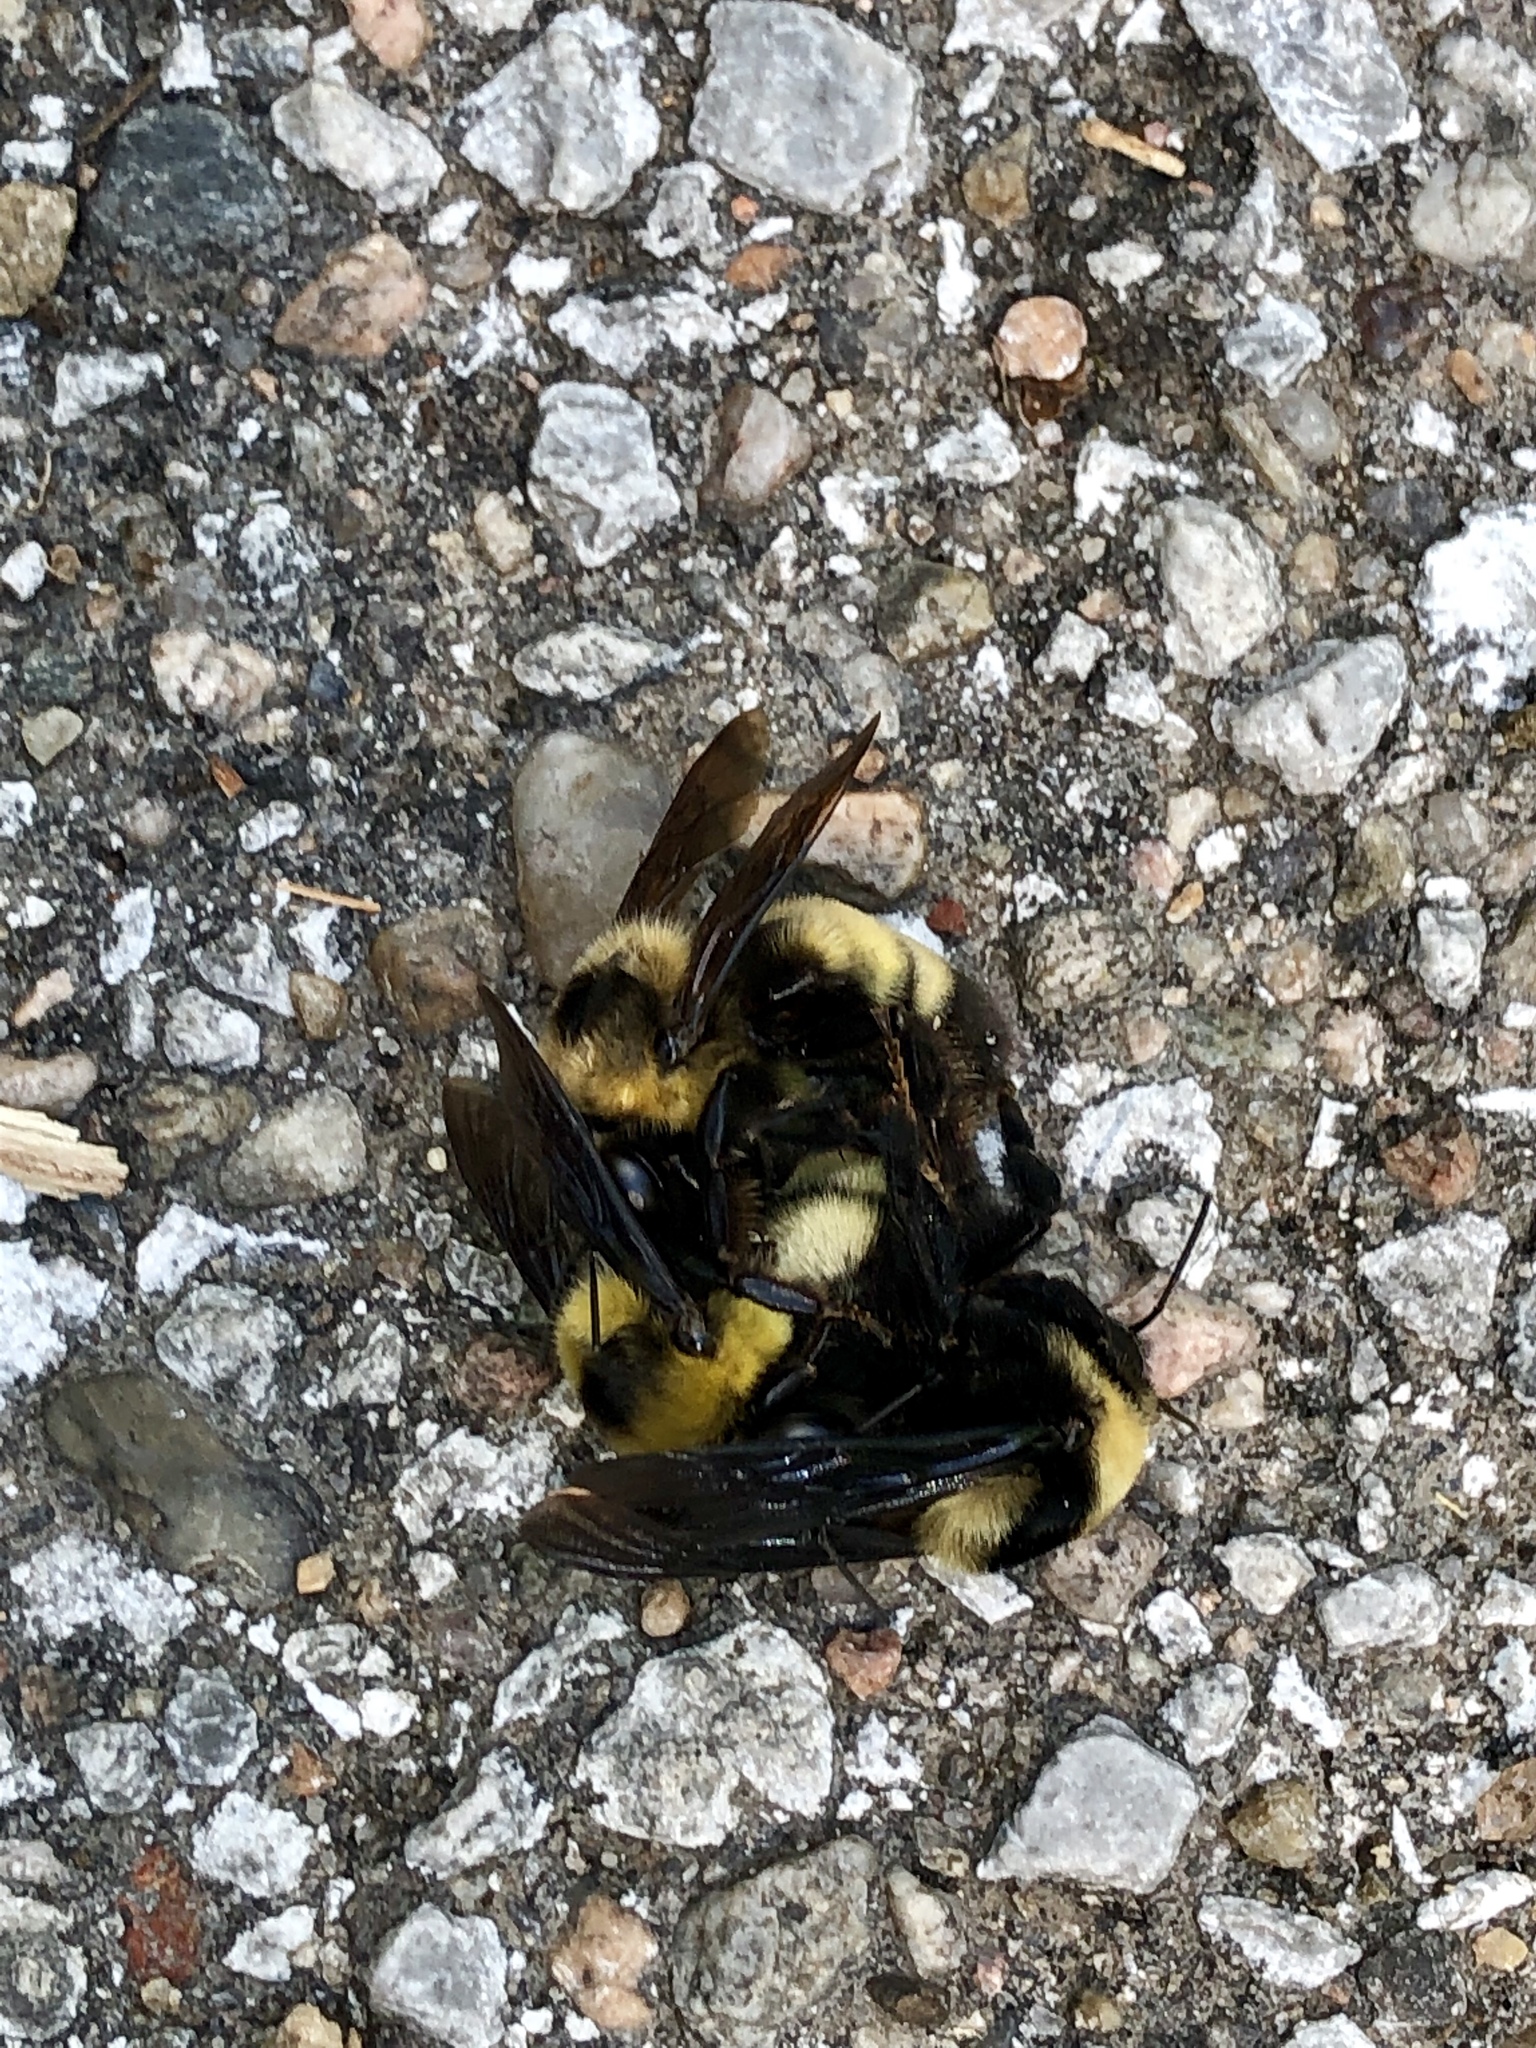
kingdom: Animalia
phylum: Arthropoda
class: Insecta
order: Hymenoptera
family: Apidae
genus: Bombus
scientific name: Bombus auricomus
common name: Black and gold bumble bee
